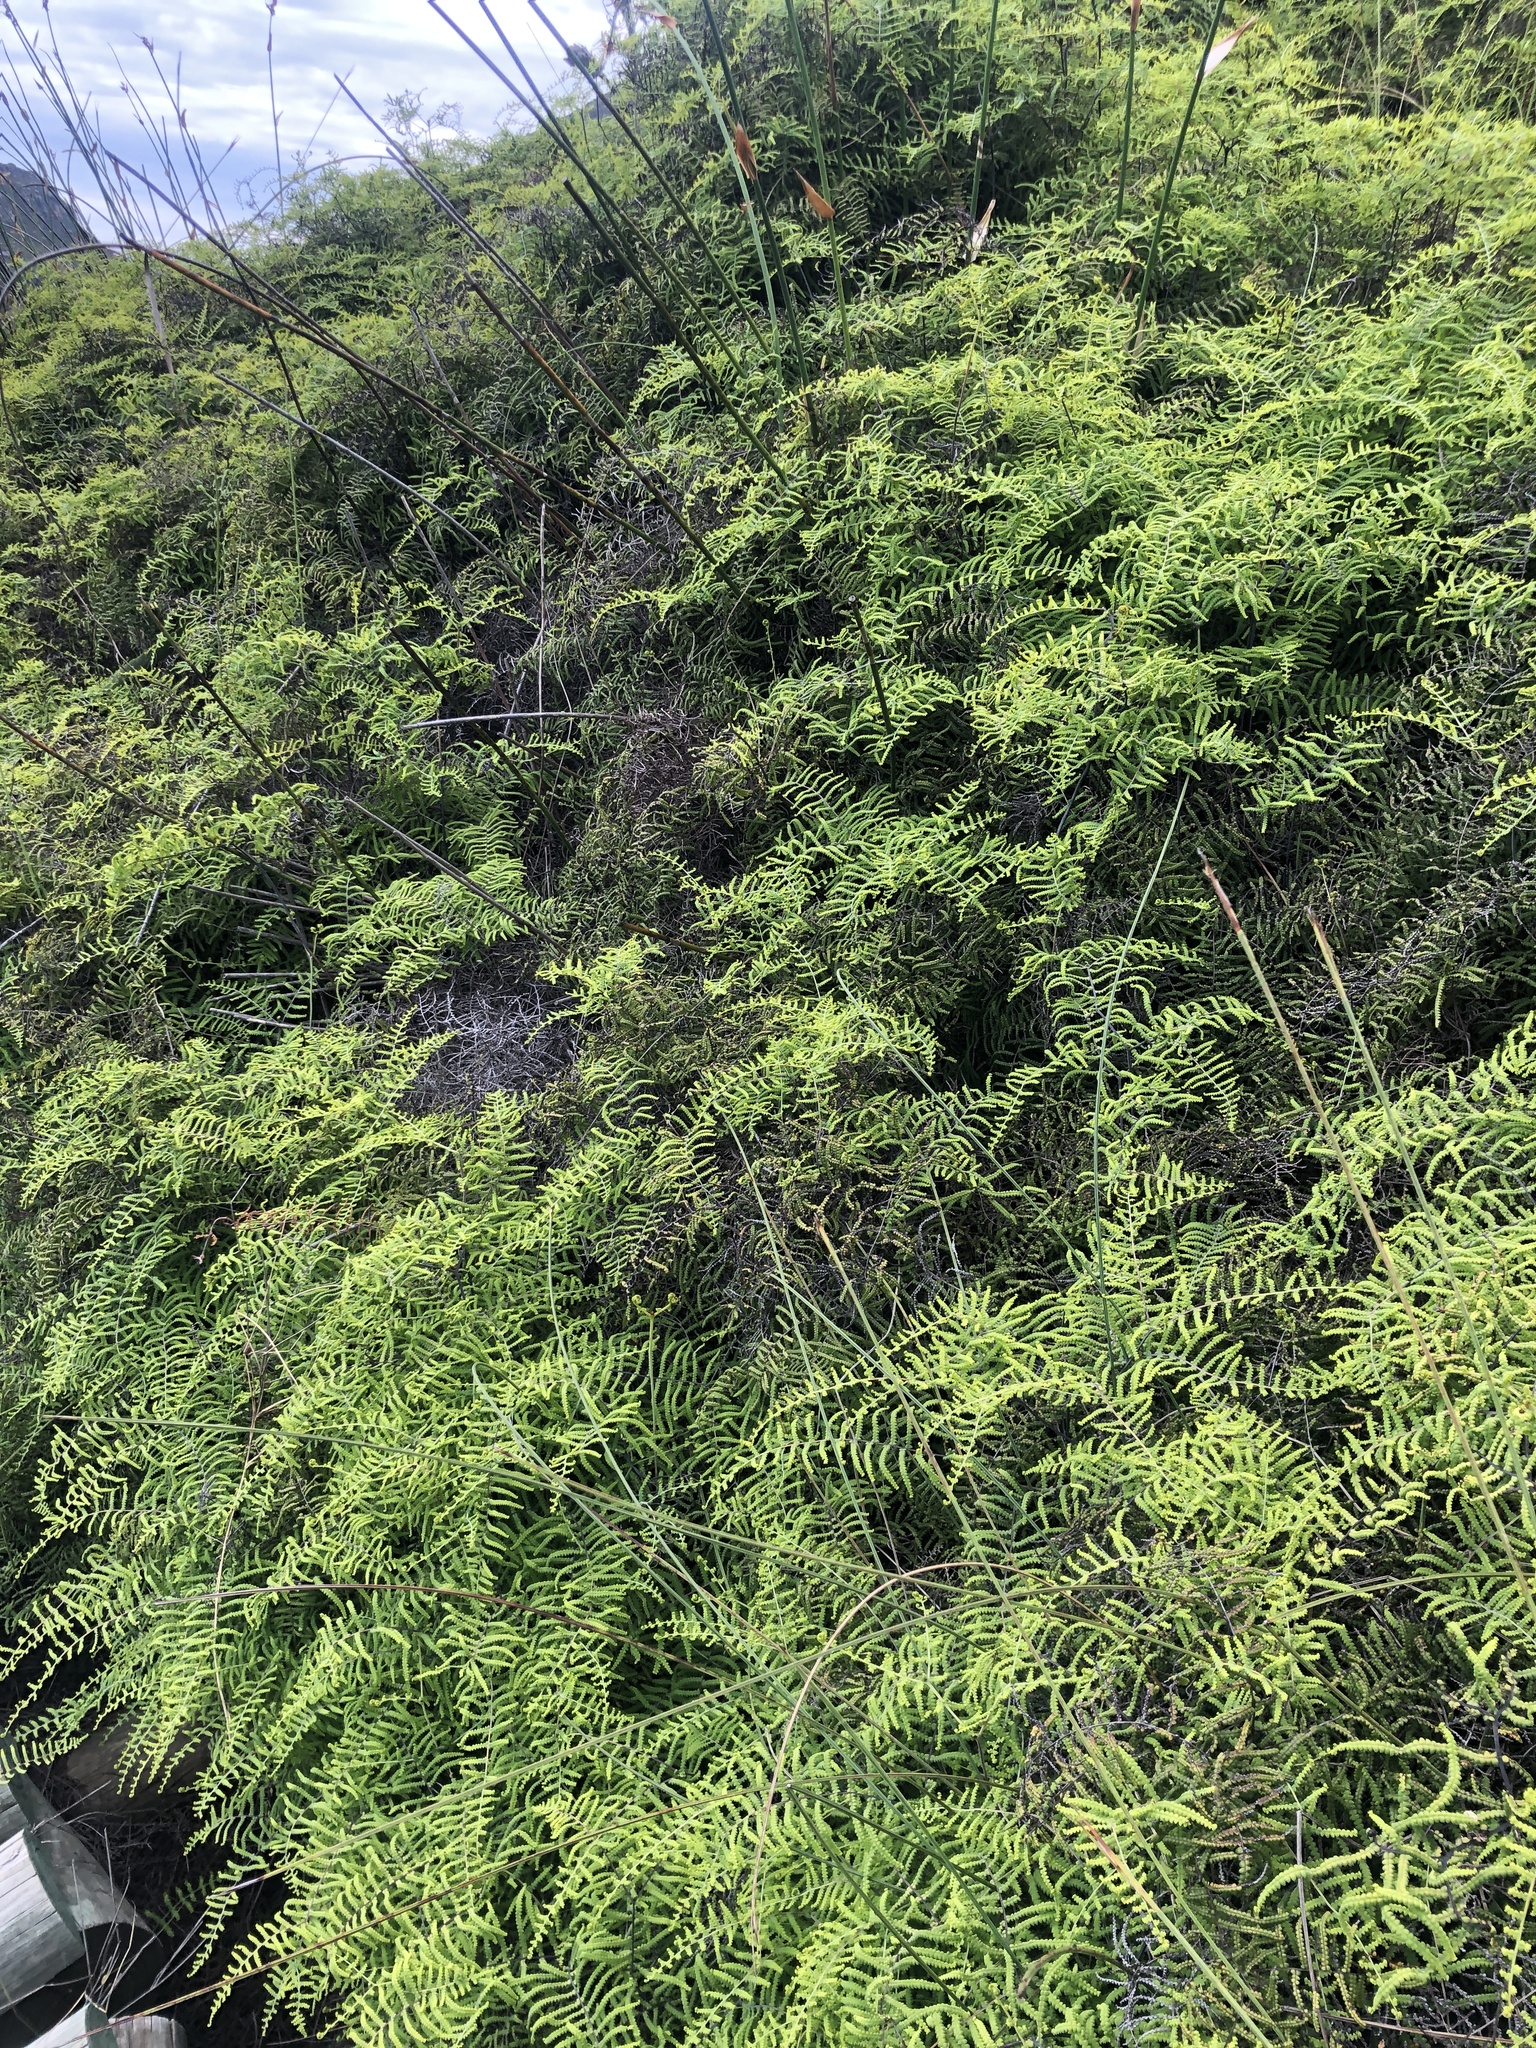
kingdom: Plantae
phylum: Tracheophyta
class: Polypodiopsida
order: Gleicheniales
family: Gleicheniaceae
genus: Gleichenia
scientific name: Gleichenia polypodioides
